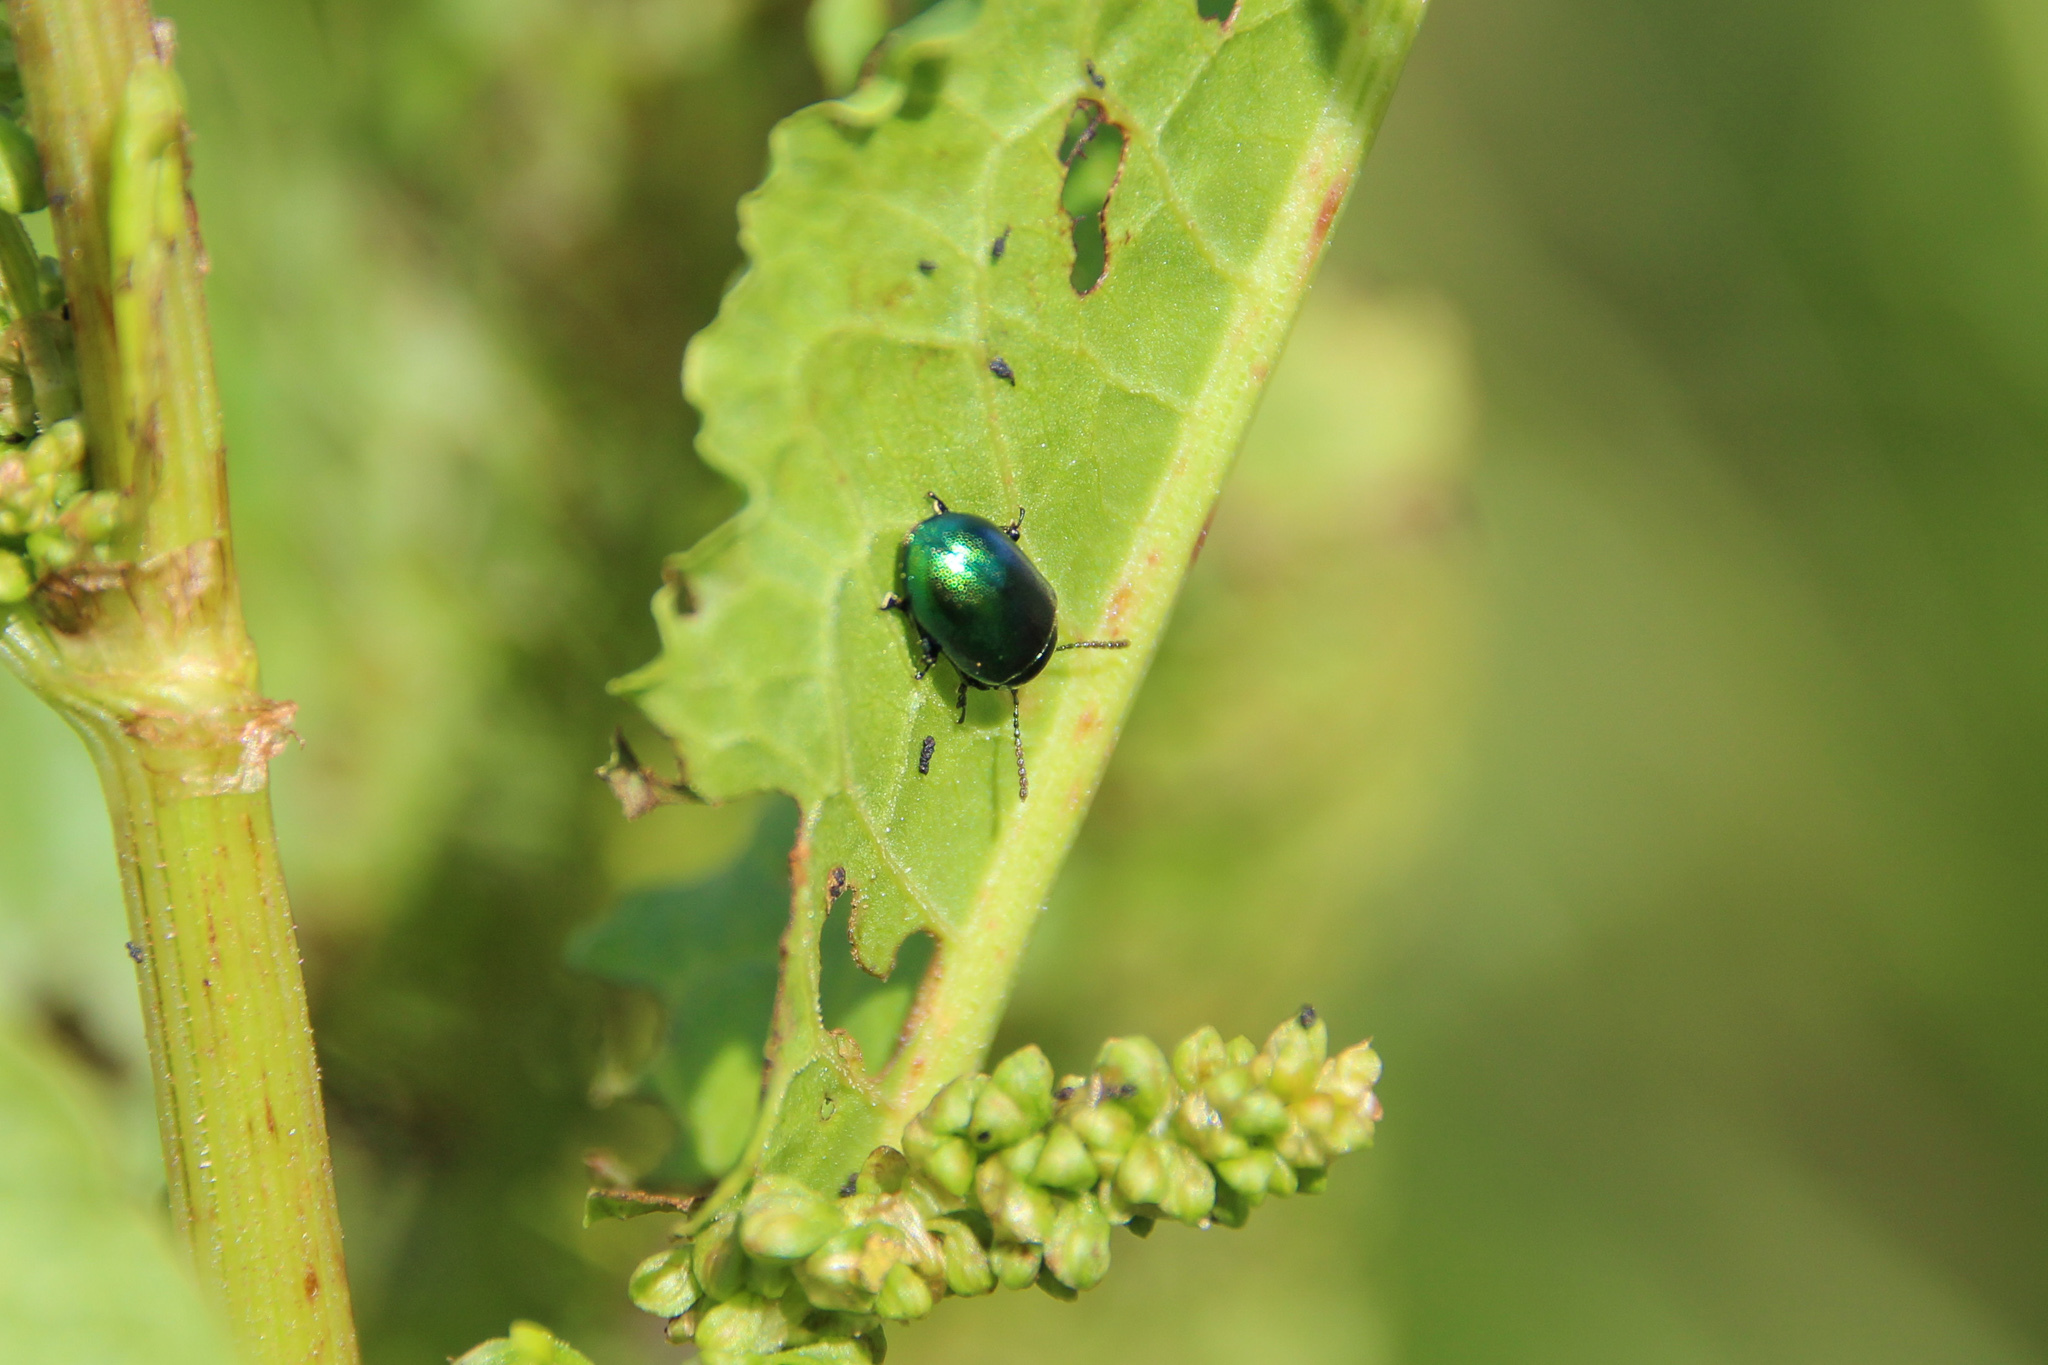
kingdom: Animalia
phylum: Arthropoda
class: Insecta
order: Coleoptera
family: Chrysomelidae
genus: Gastrophysa
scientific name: Gastrophysa viridula
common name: Green dock beetle
